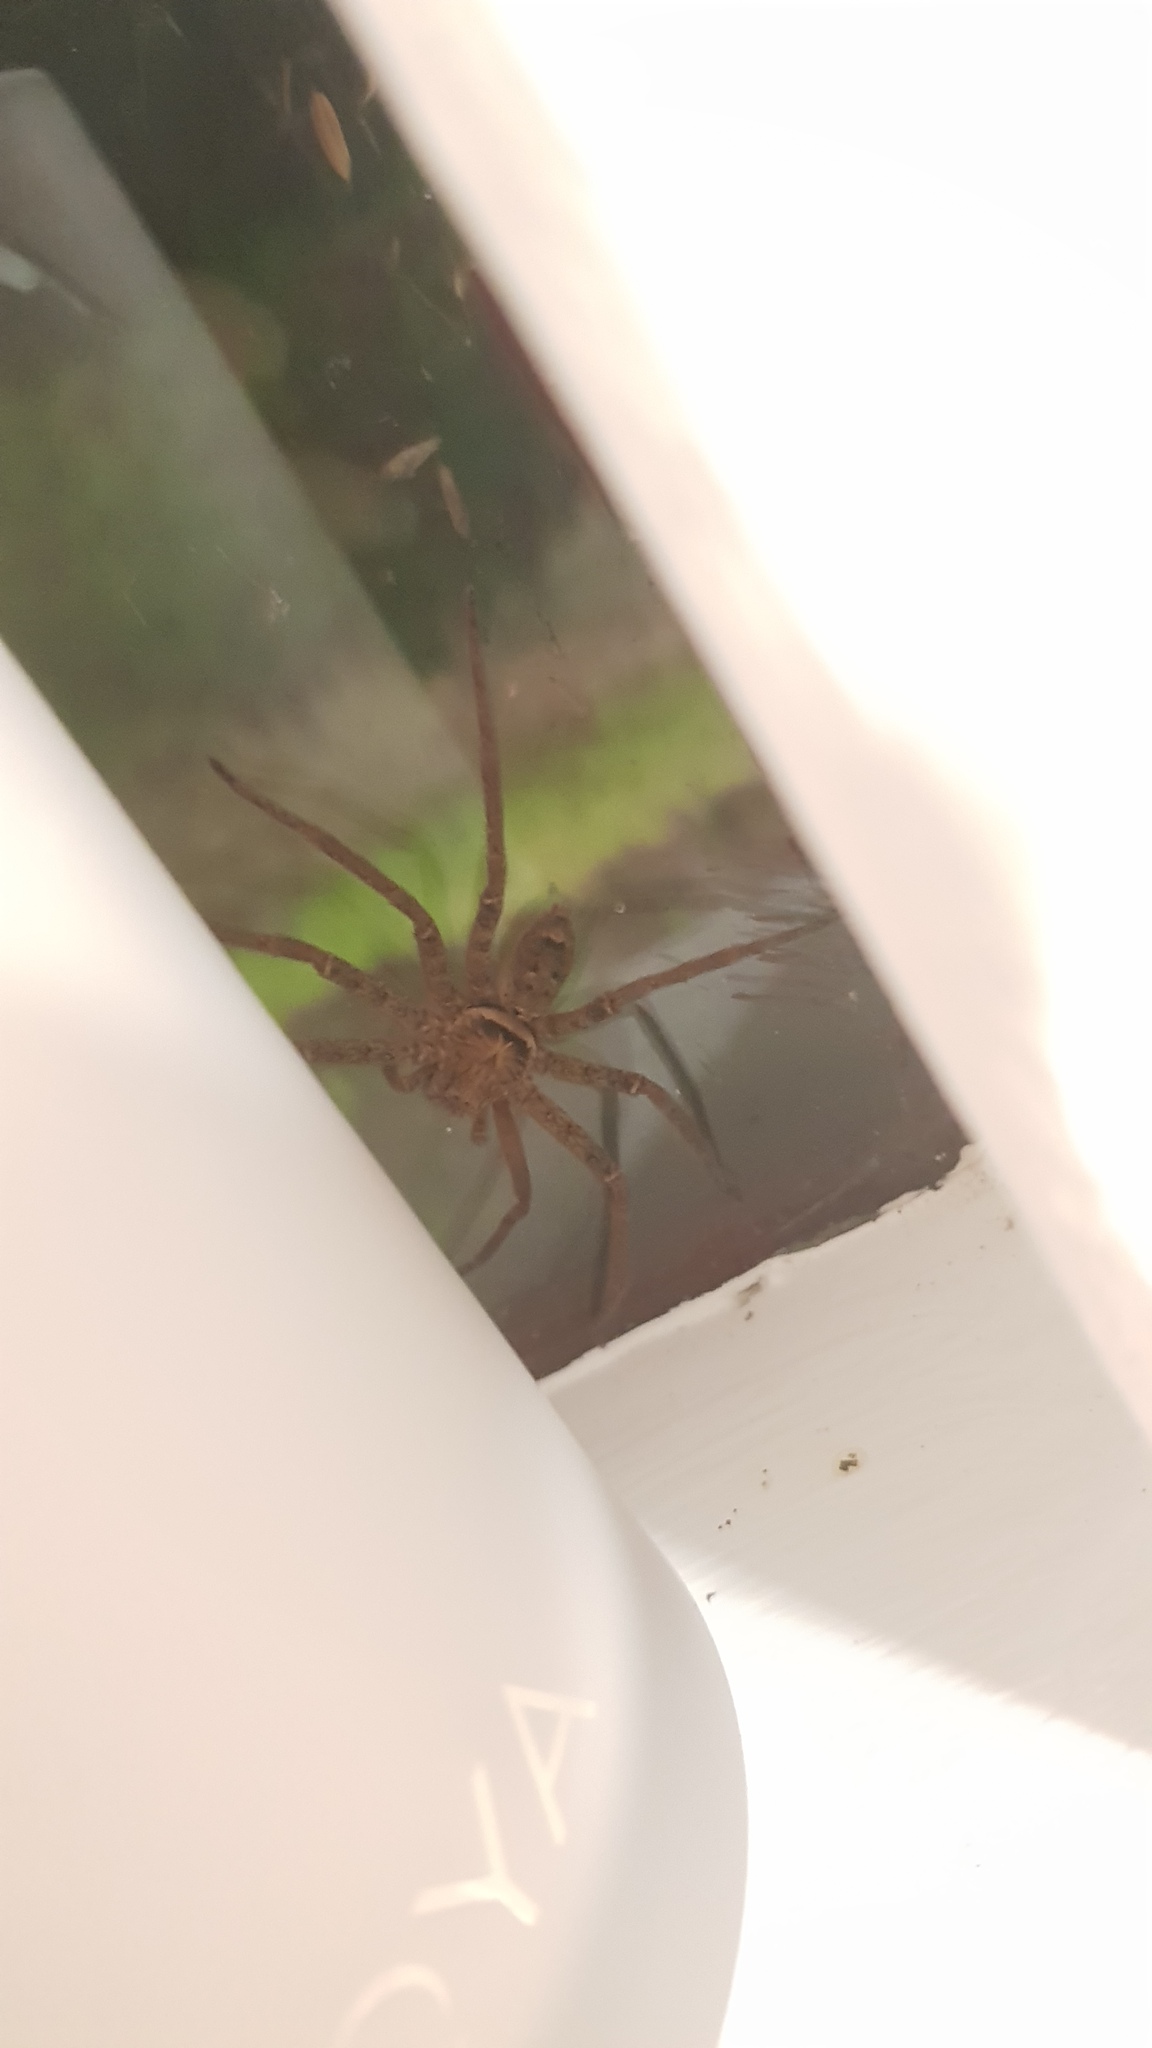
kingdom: Animalia
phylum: Arthropoda
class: Arachnida
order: Araneae
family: Sparassidae
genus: Heteropoda
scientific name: Heteropoda jugulans
